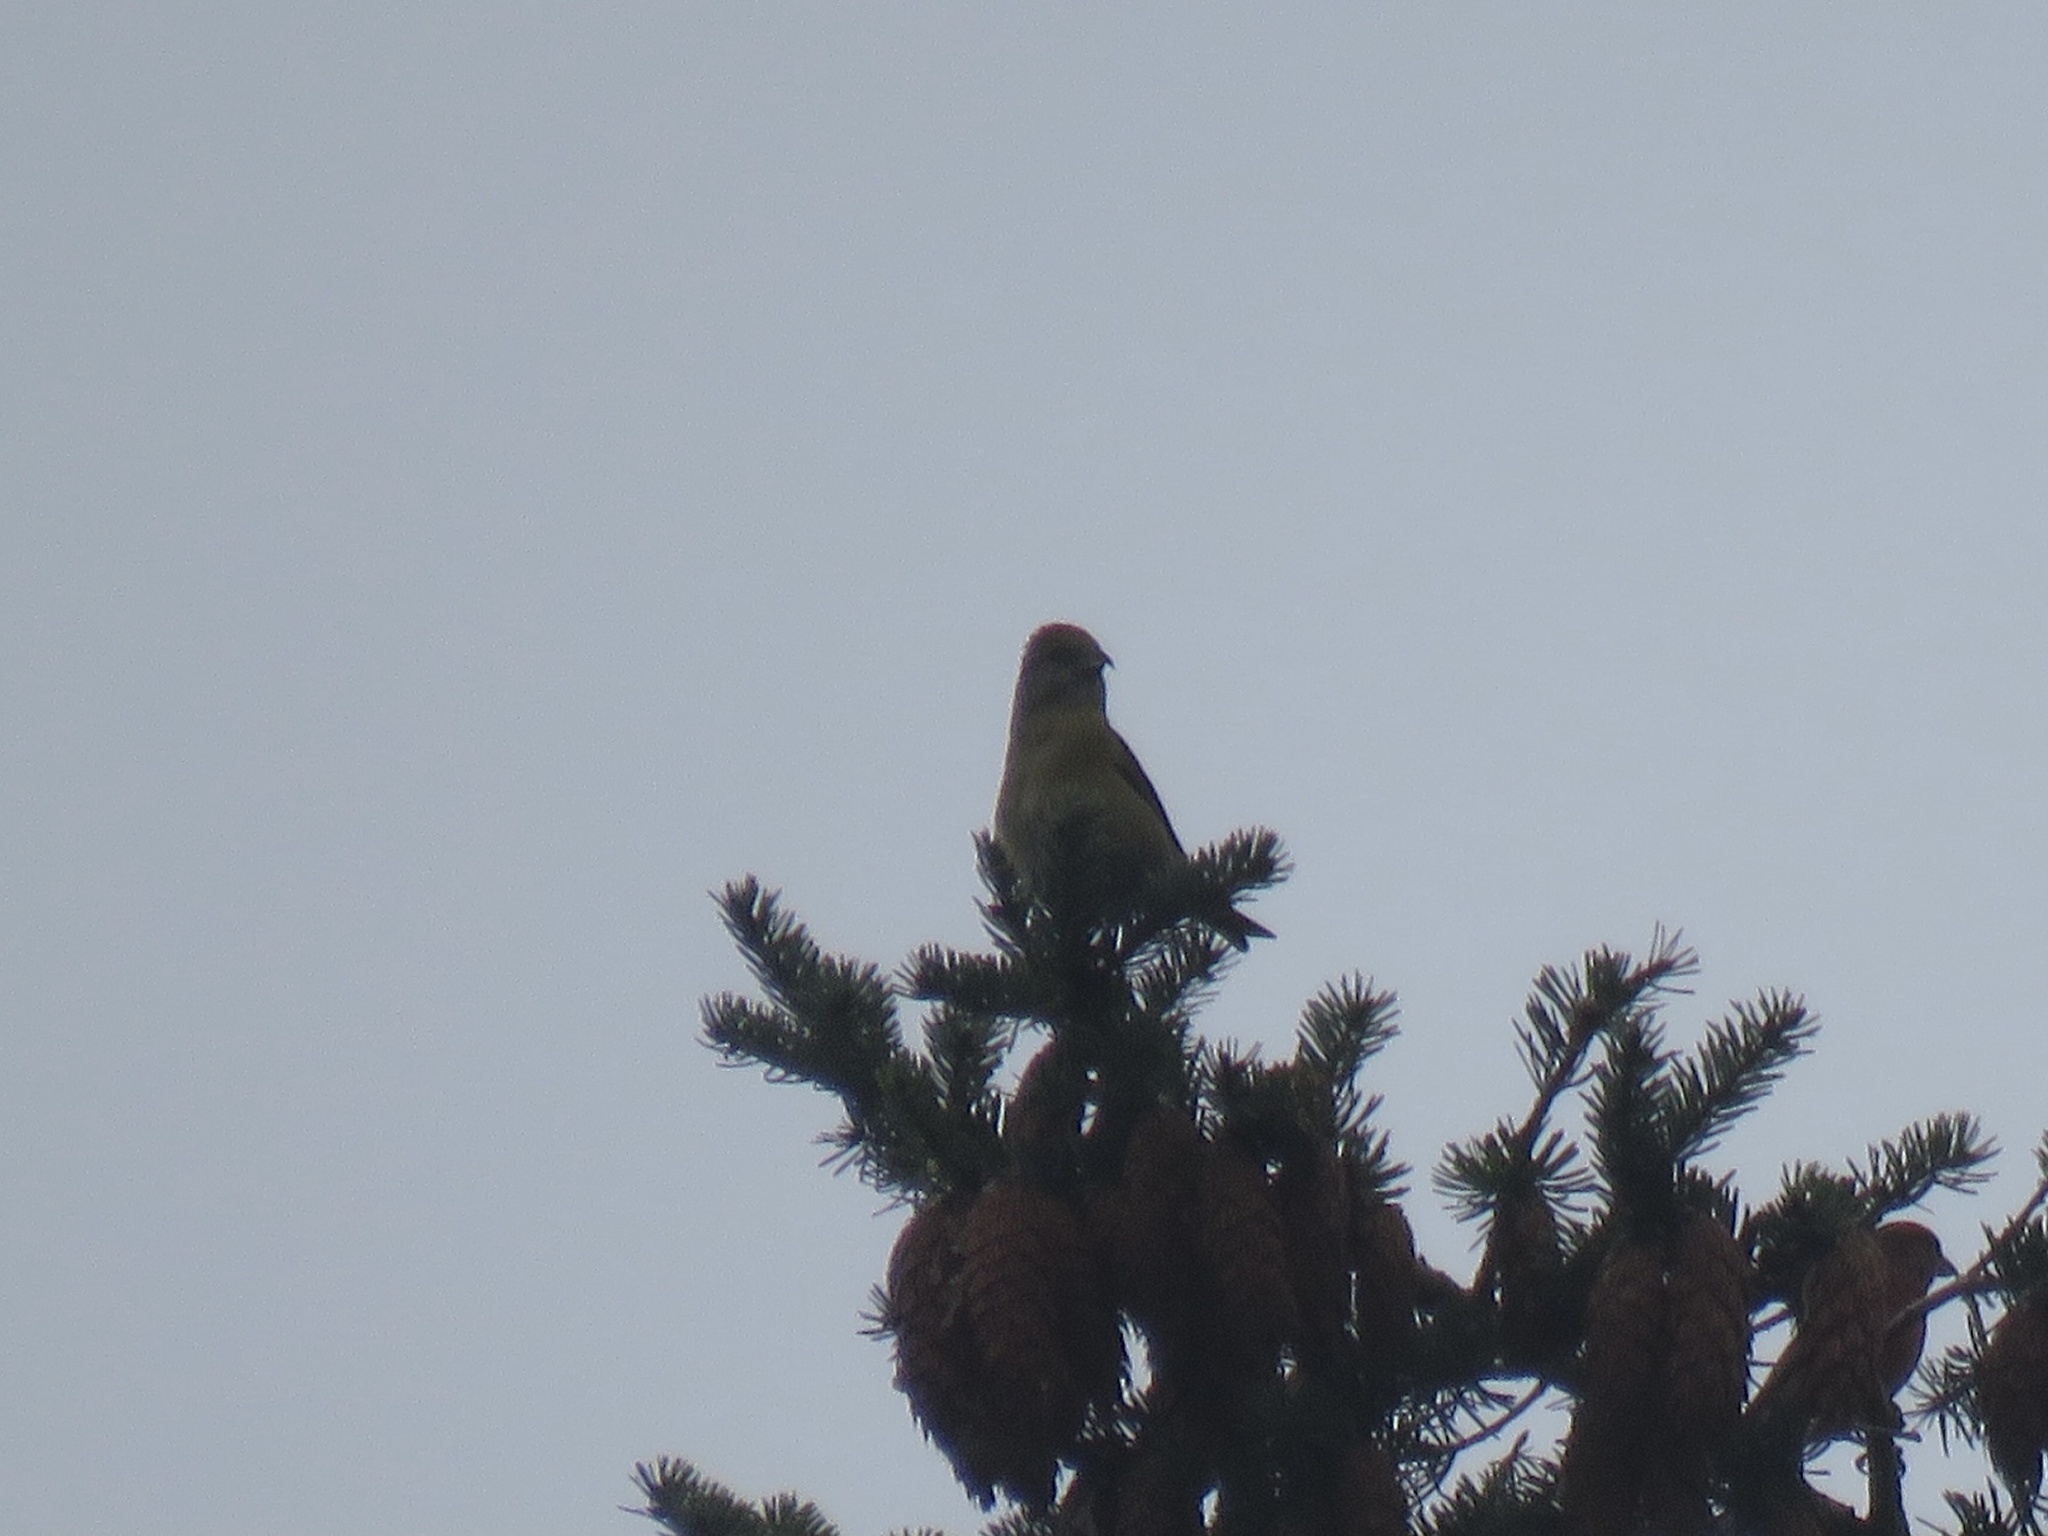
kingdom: Animalia
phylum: Chordata
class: Aves
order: Passeriformes
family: Fringillidae
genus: Loxia
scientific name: Loxia curvirostra
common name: Red crossbill
